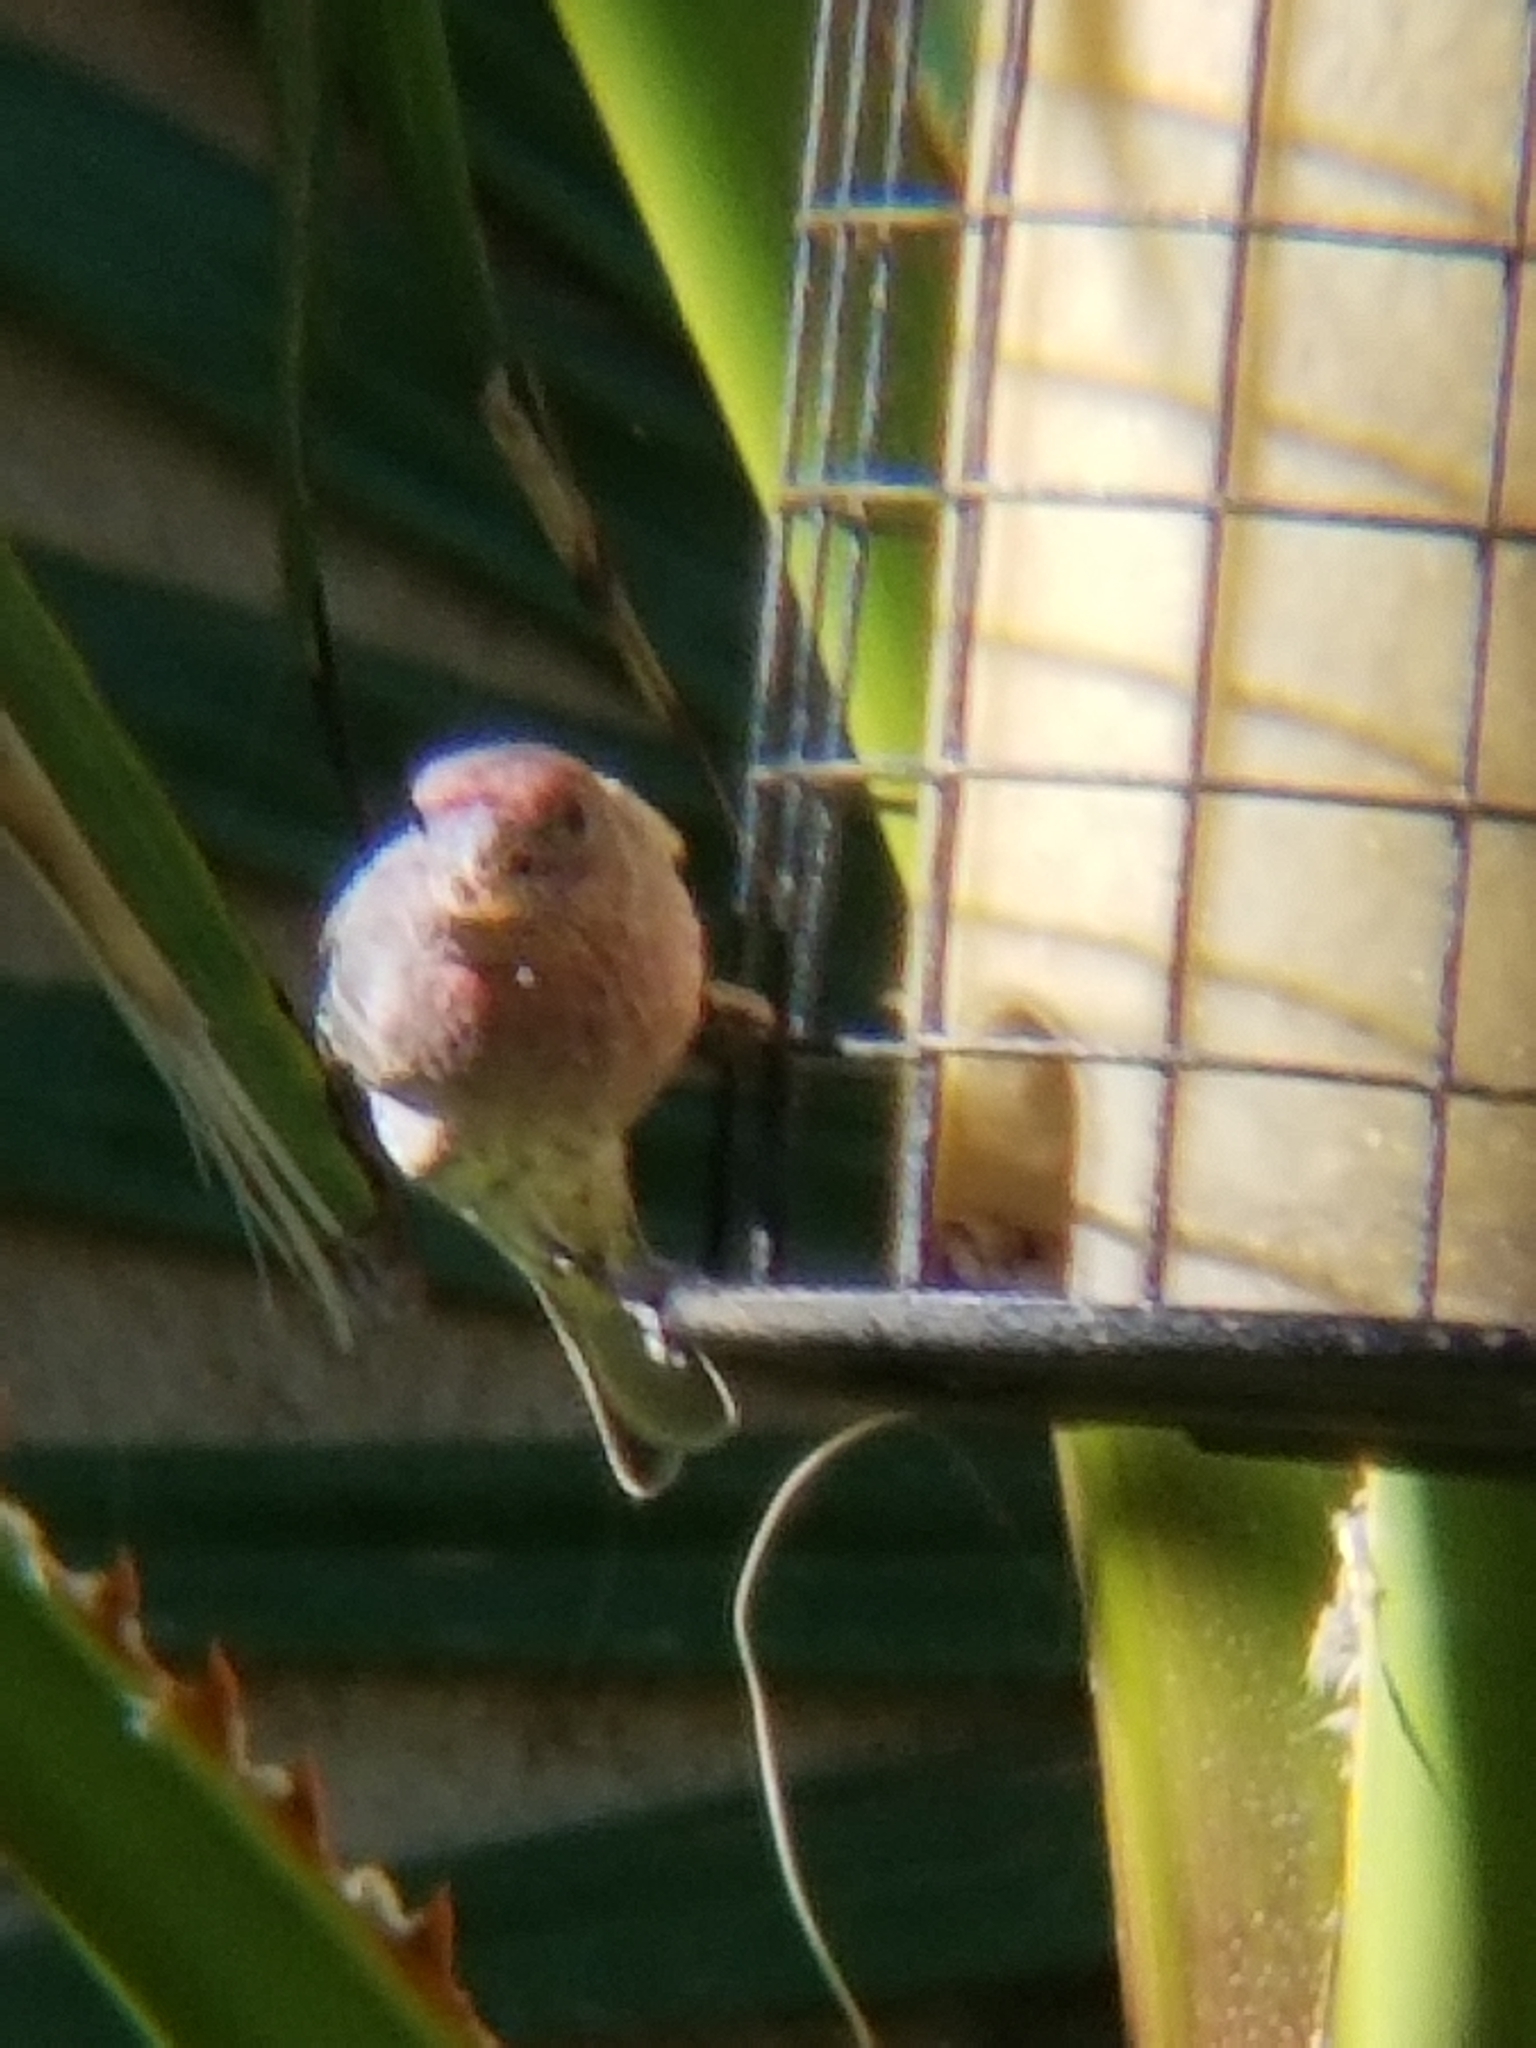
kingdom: Animalia
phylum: Chordata
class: Aves
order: Passeriformes
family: Fringillidae
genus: Haemorhous
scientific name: Haemorhous mexicanus
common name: House finch
